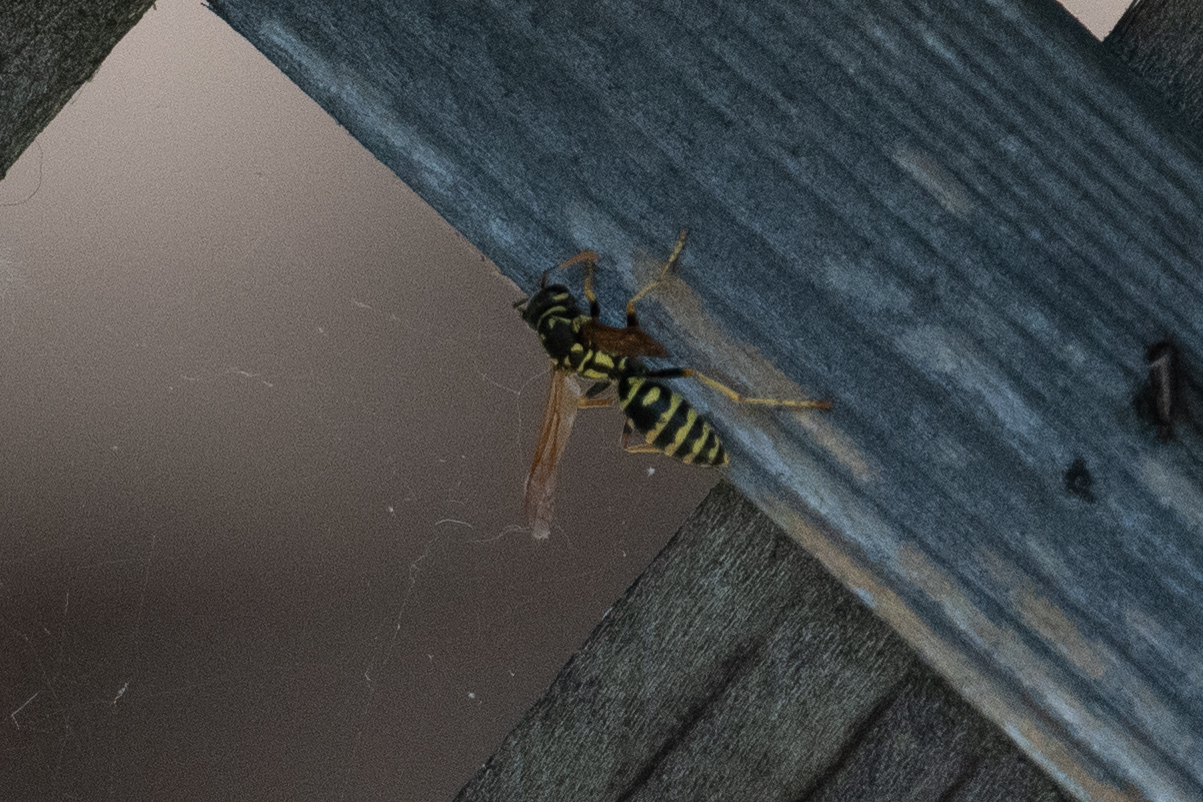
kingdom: Animalia
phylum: Arthropoda
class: Insecta
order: Hymenoptera
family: Eumenidae
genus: Polistes
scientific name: Polistes dominula
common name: Paper wasp
